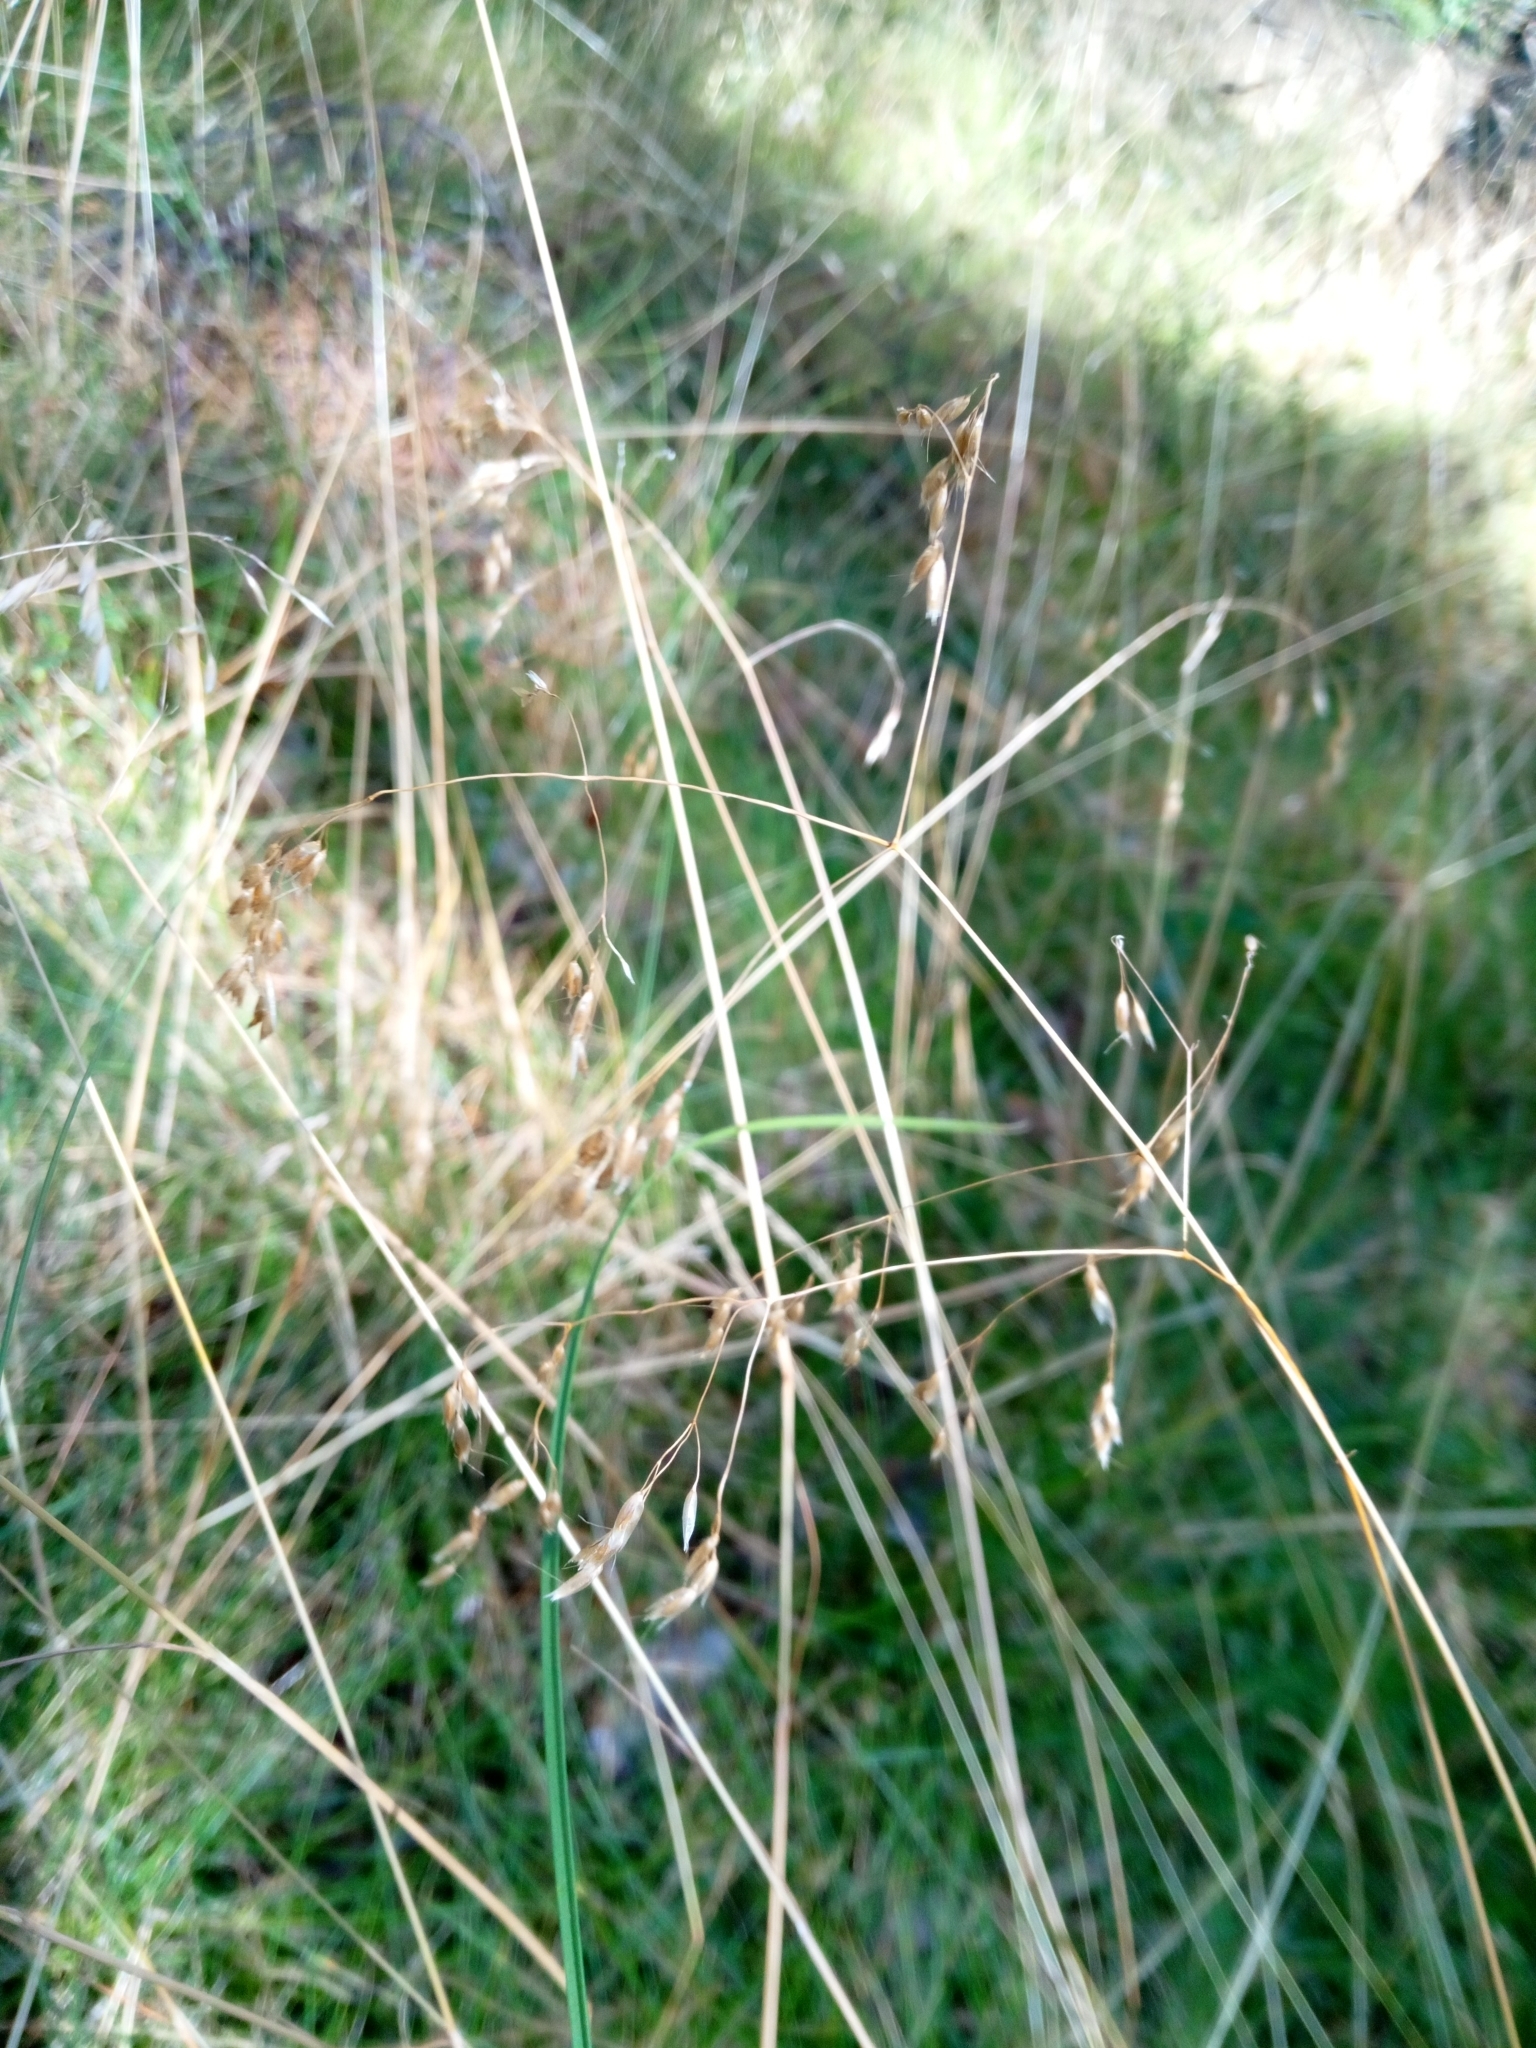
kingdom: Plantae
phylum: Tracheophyta
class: Liliopsida
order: Poales
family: Poaceae
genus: Avenella
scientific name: Avenella flexuosa
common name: Wavy hairgrass
